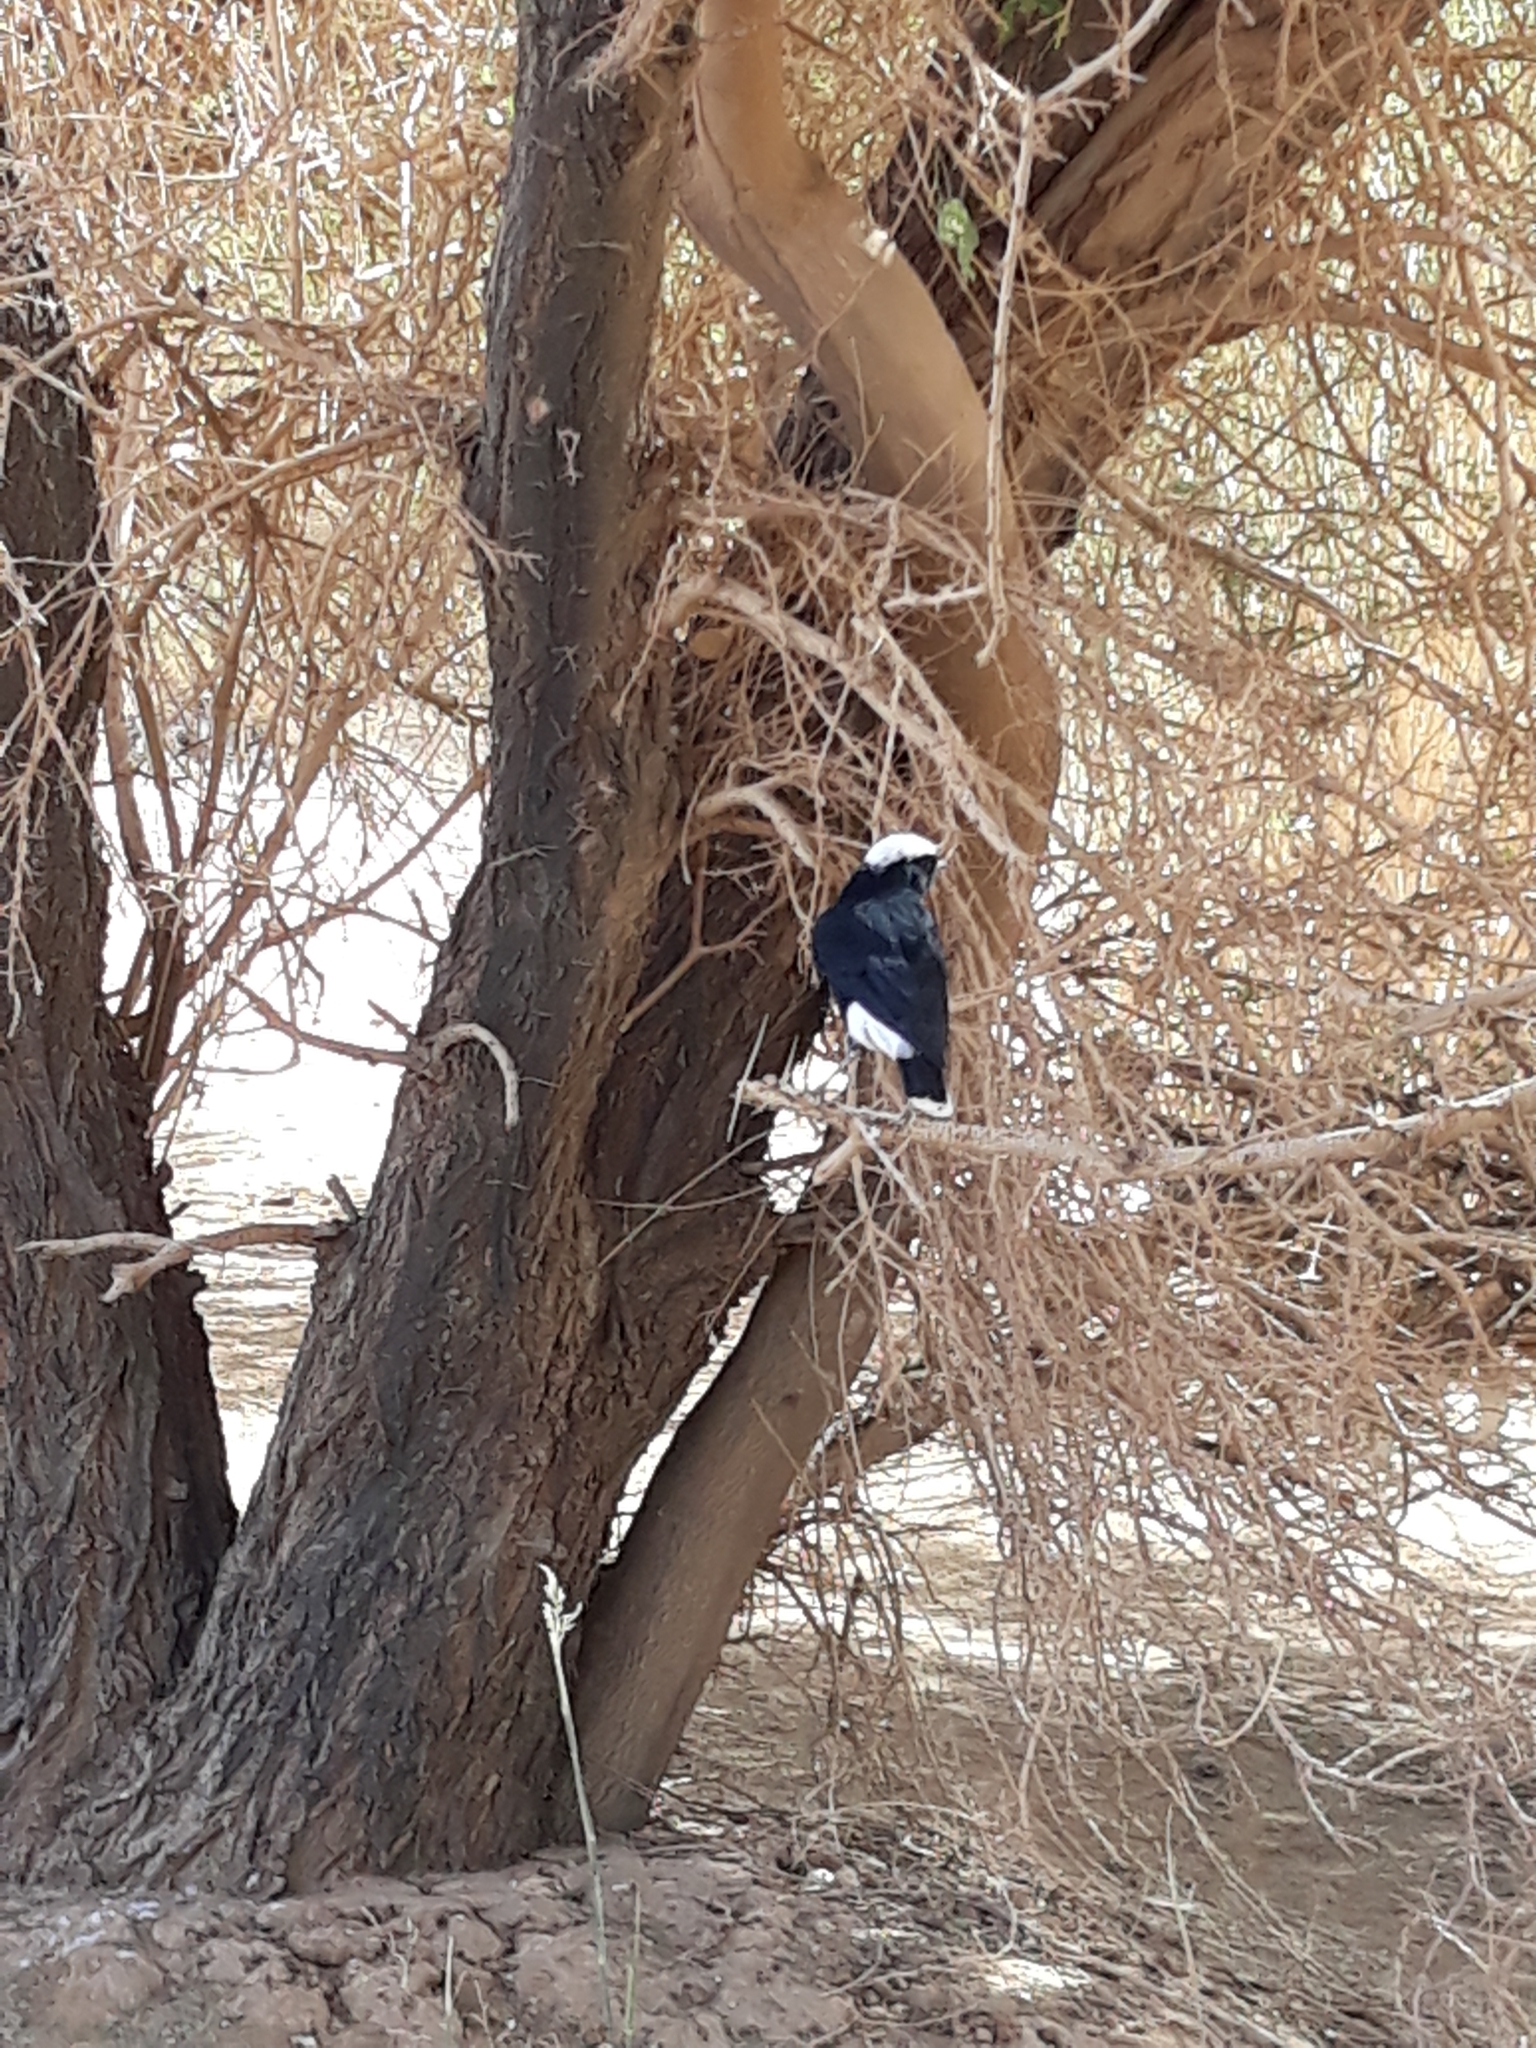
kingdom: Animalia
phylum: Chordata
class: Aves
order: Passeriformes
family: Muscicapidae
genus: Oenanthe
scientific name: Oenanthe leucopyga
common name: White-crowned wheatear
